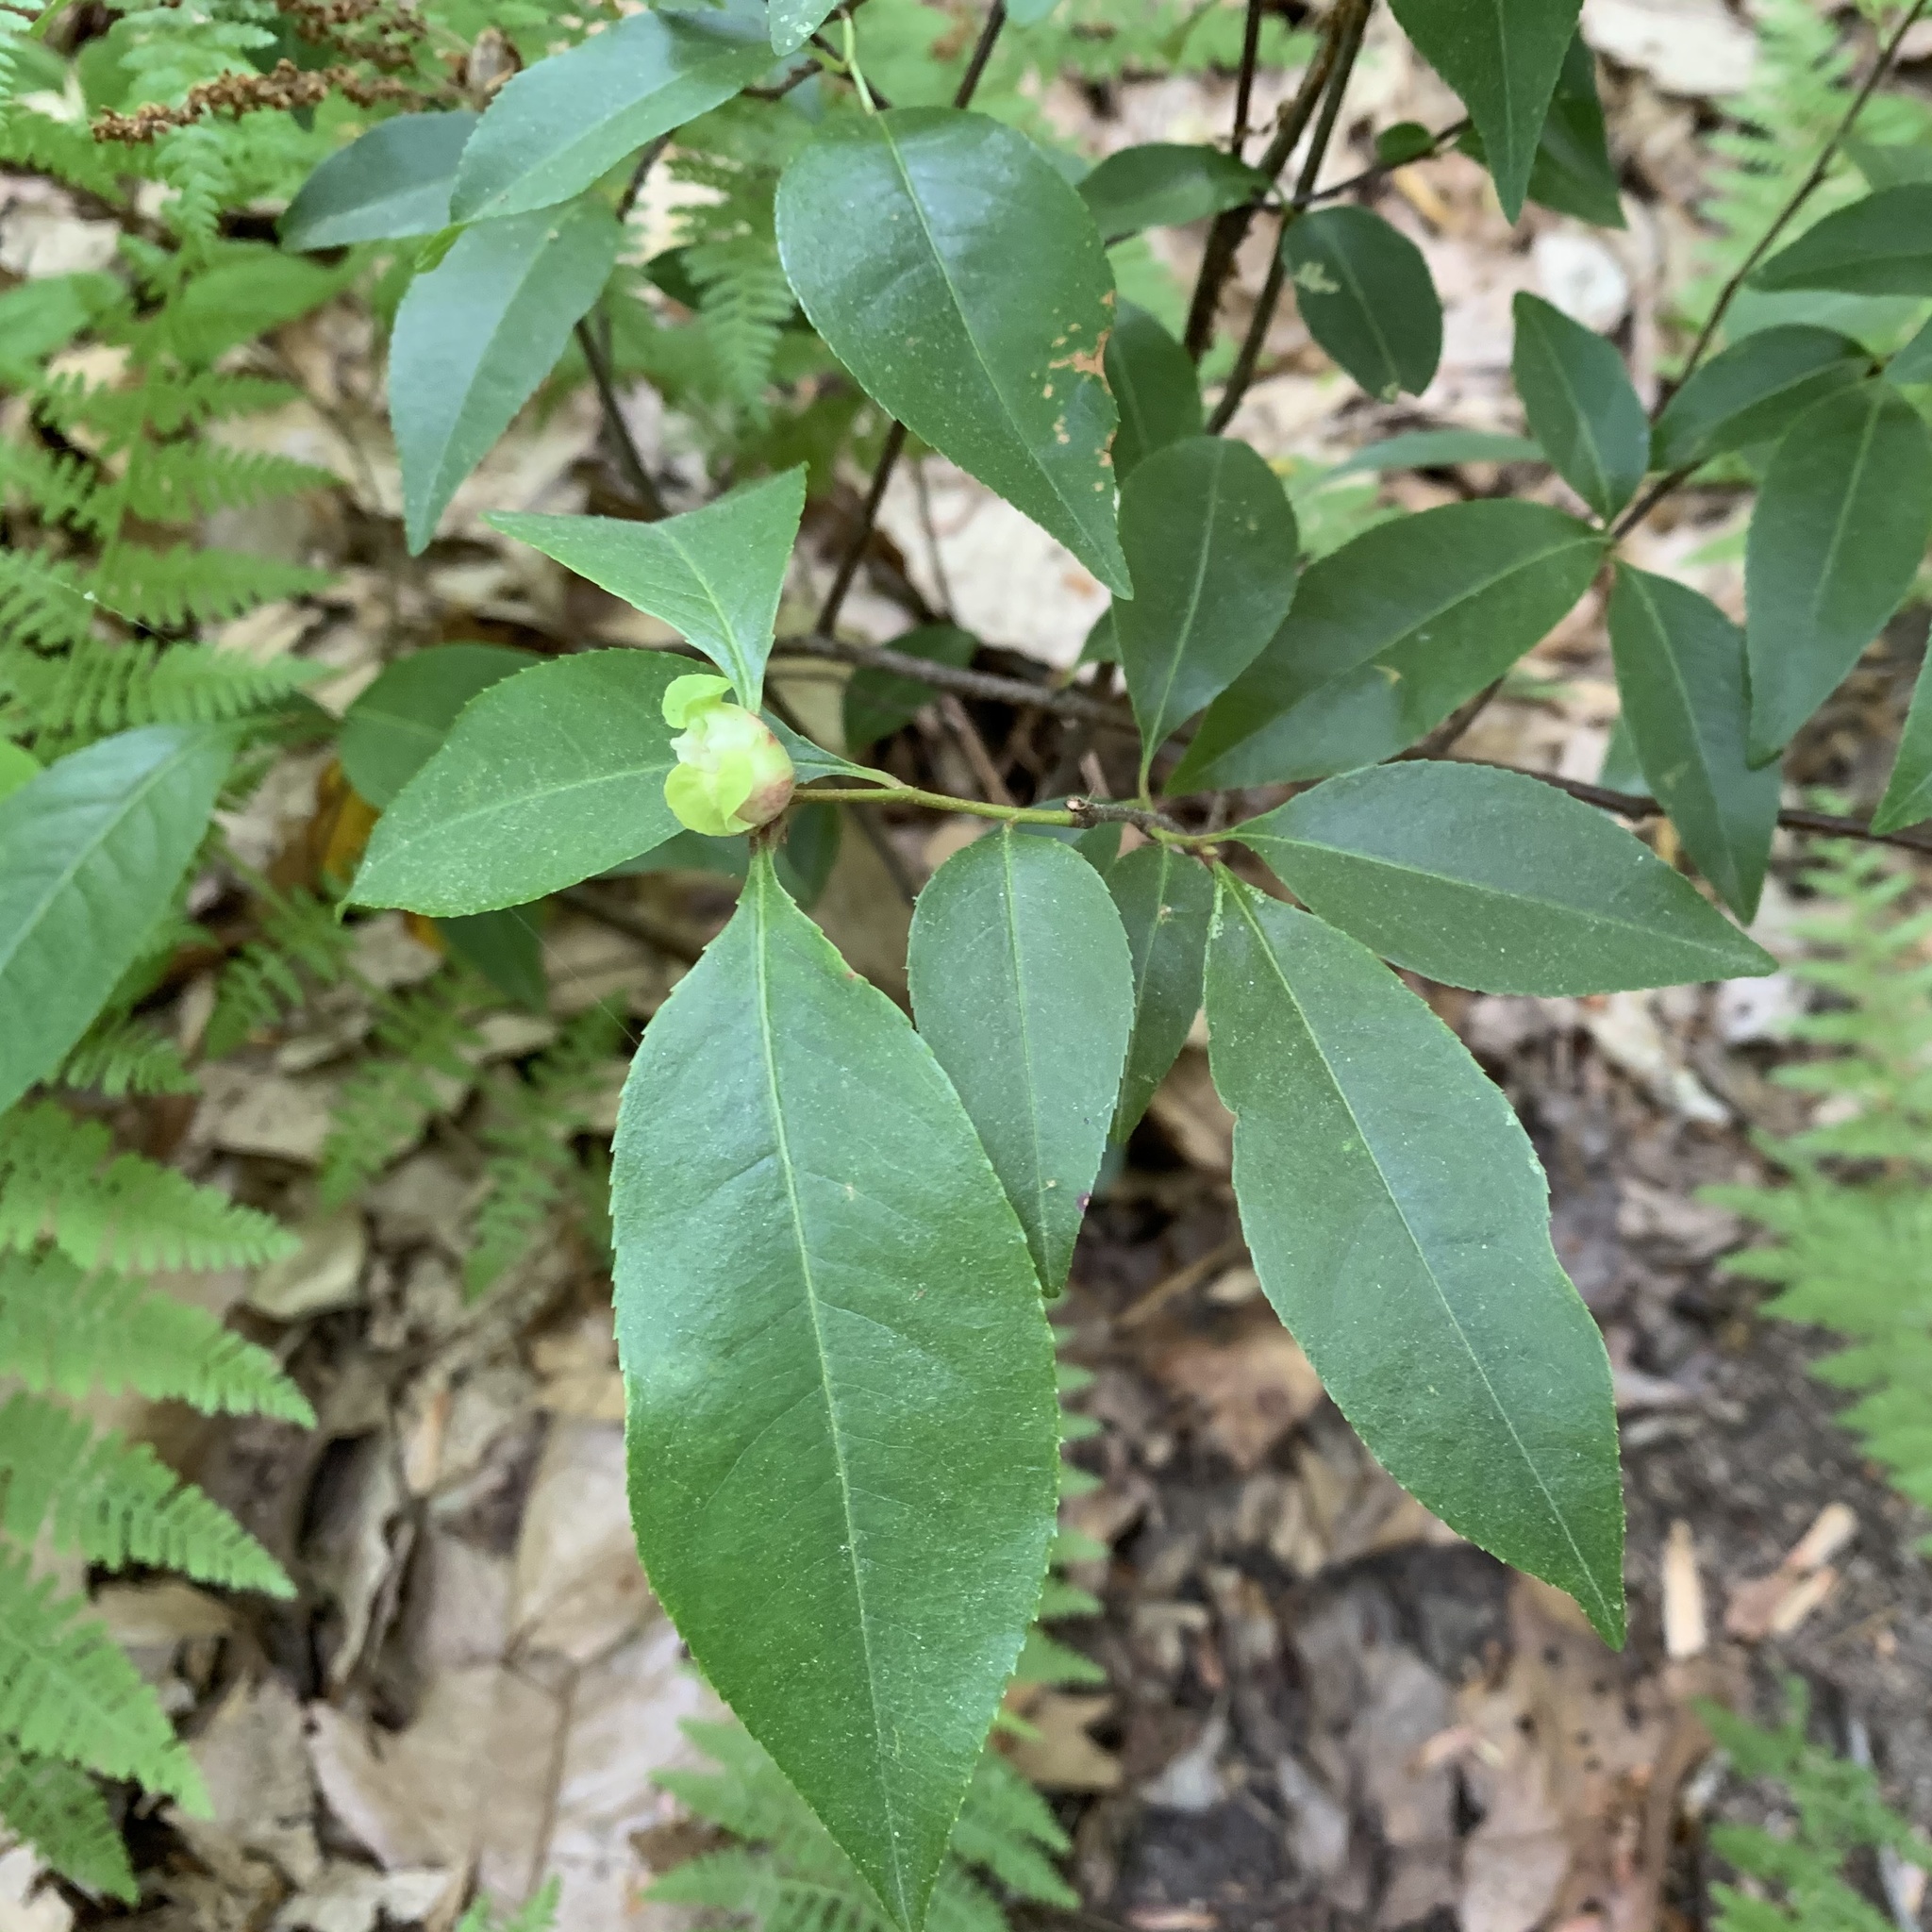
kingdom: Animalia
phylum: Arthropoda
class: Insecta
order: Diptera
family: Cecidomyiidae
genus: Contarinia
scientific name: Contarinia cerasiserotinae
